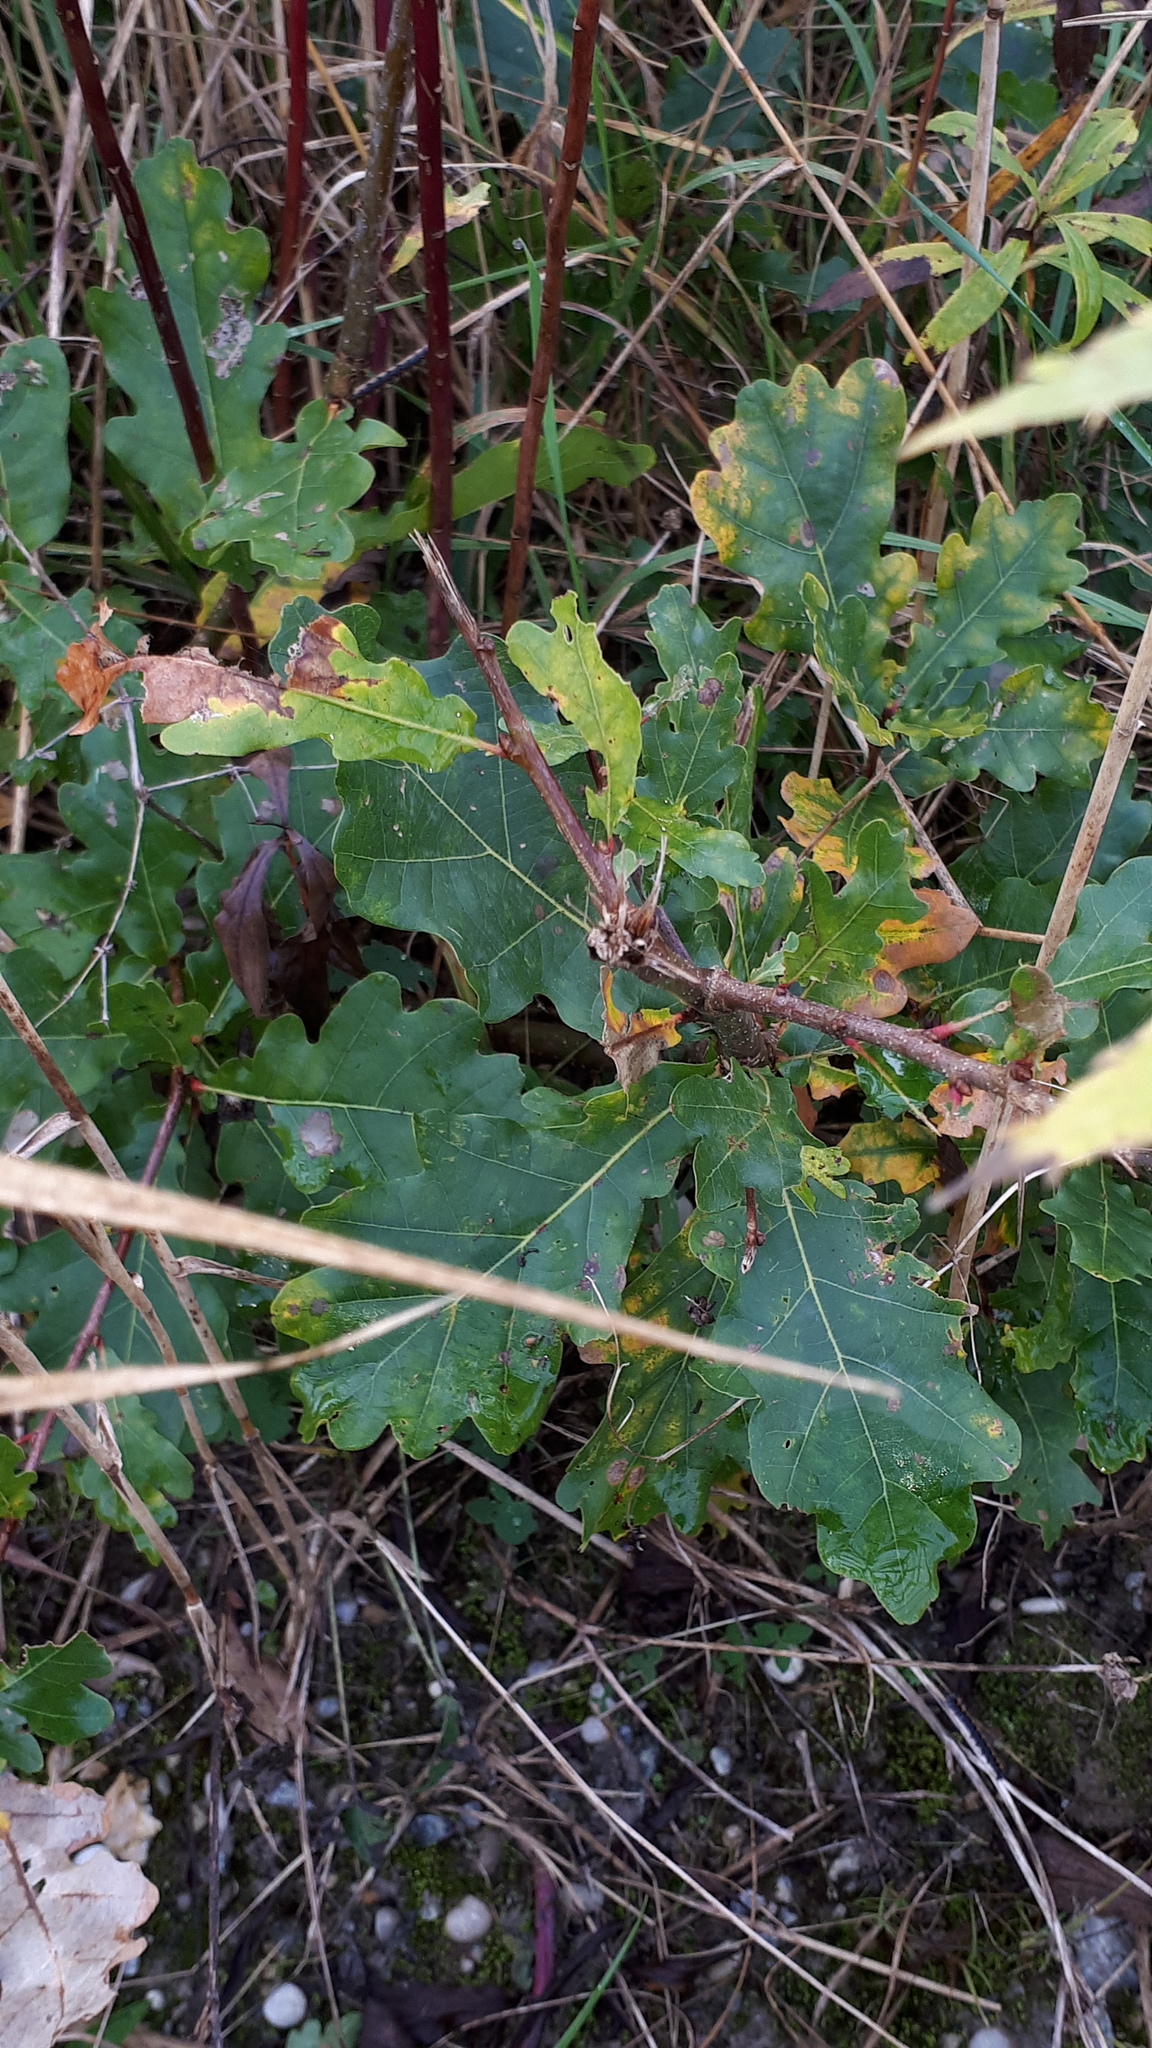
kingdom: Plantae
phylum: Tracheophyta
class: Magnoliopsida
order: Fagales
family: Fagaceae
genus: Quercus
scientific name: Quercus robur
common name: Pedunculate oak
